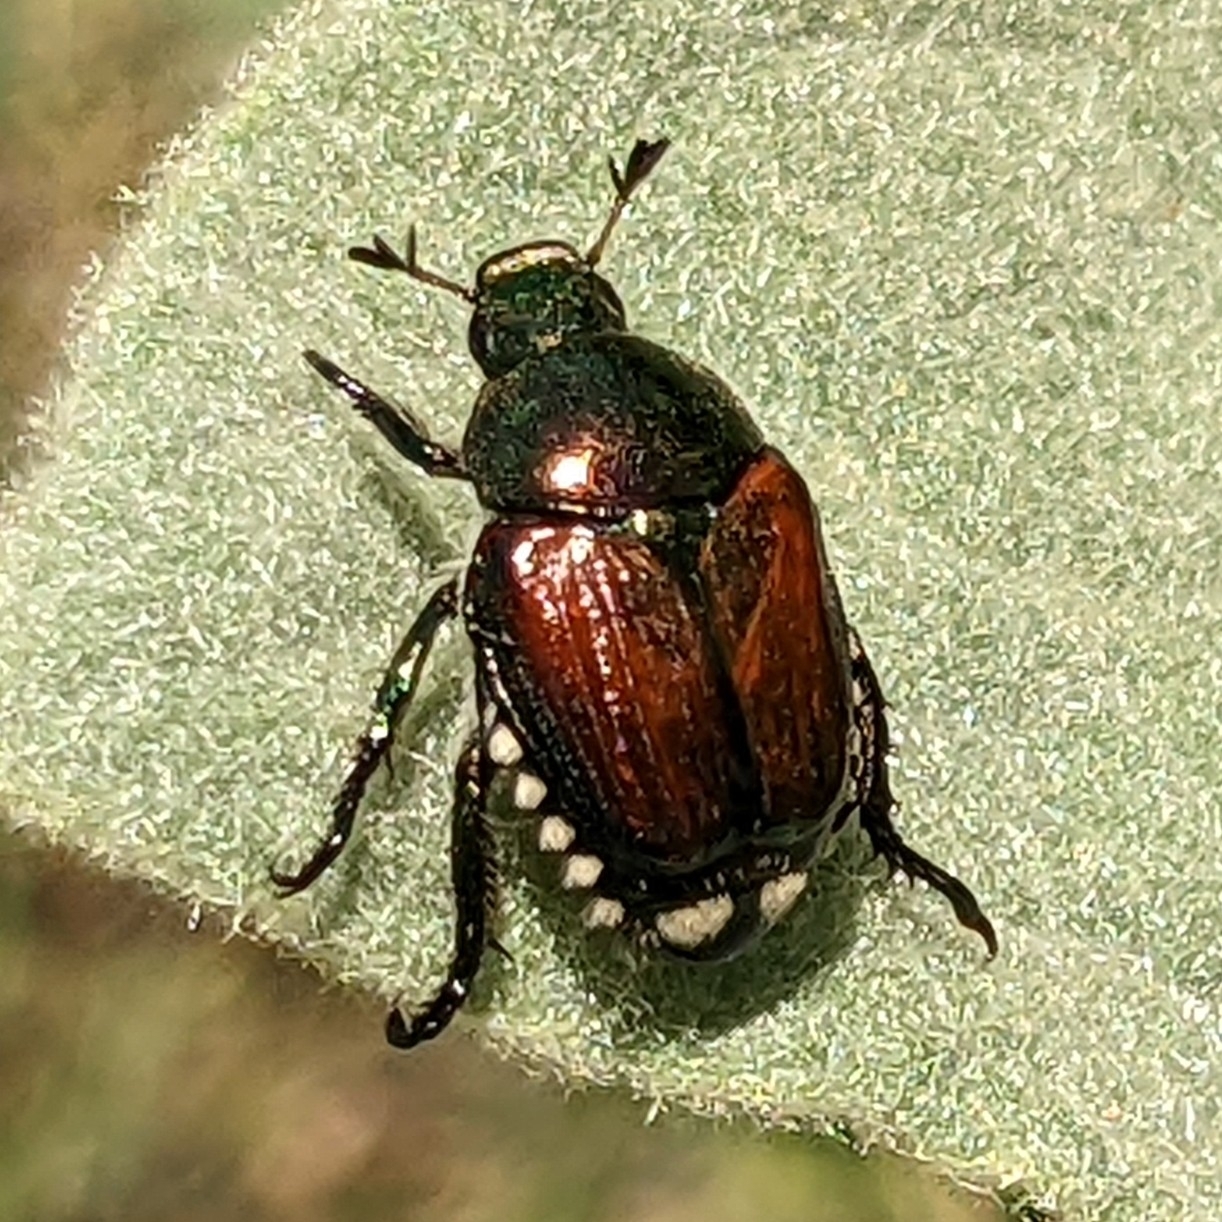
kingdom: Animalia
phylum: Arthropoda
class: Insecta
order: Coleoptera
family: Scarabaeidae
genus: Popillia
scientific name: Popillia japonica
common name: Japanese beetle
